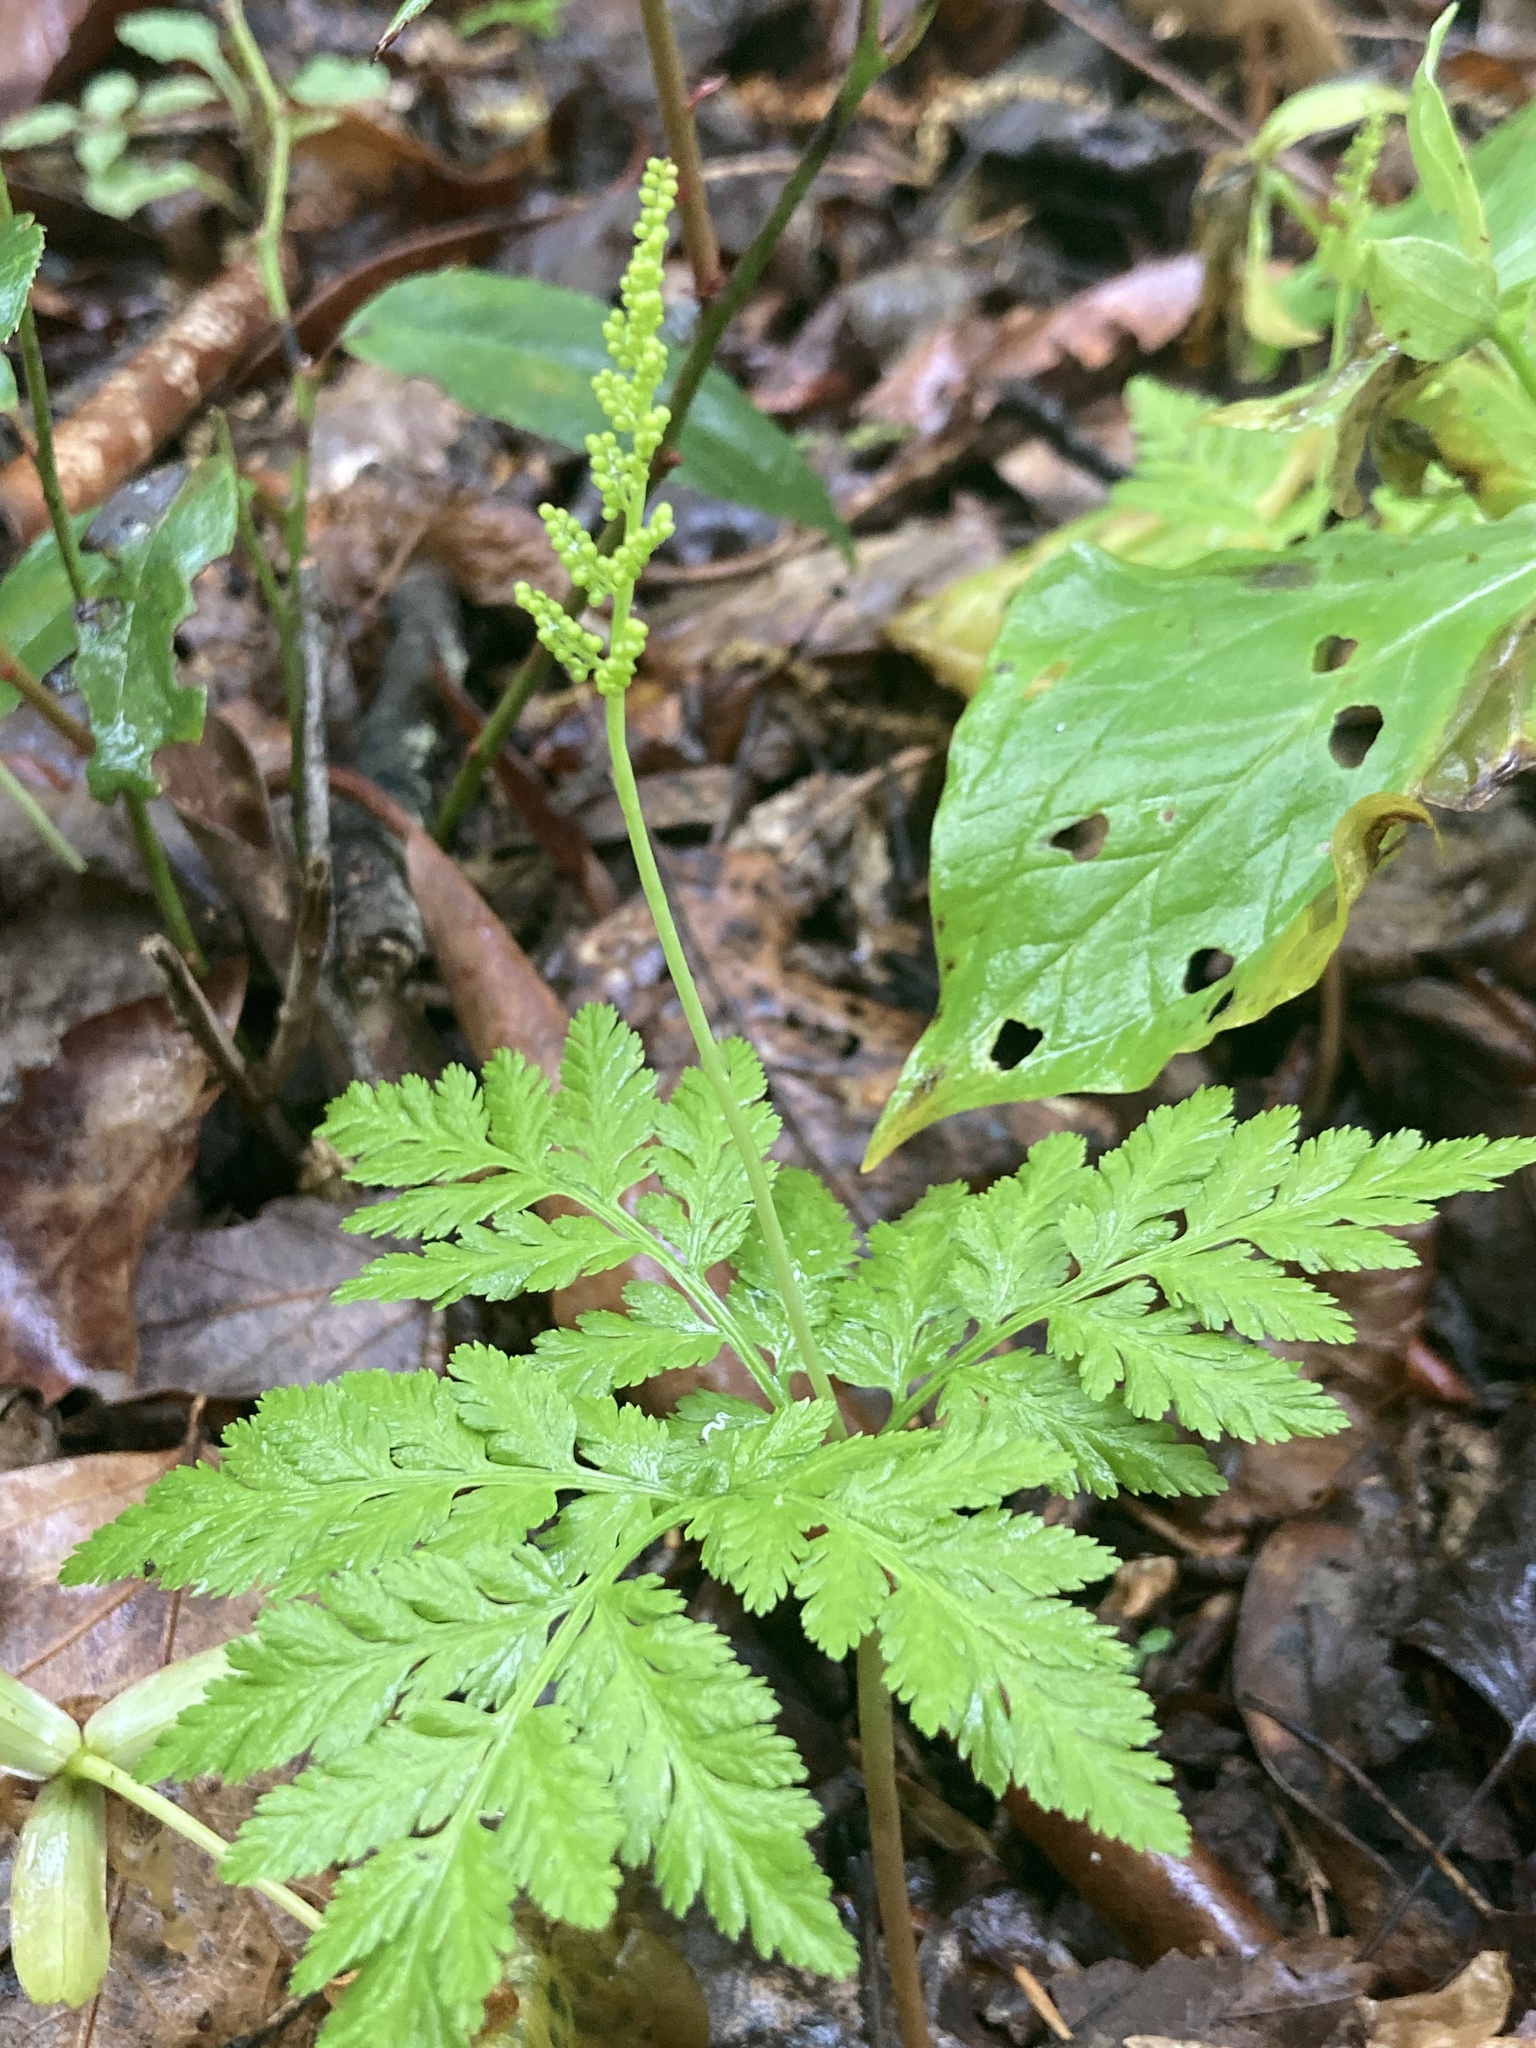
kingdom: Plantae
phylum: Tracheophyta
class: Polypodiopsida
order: Ophioglossales
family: Ophioglossaceae
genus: Botrypus
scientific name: Botrypus virginianus
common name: Common grapefern
